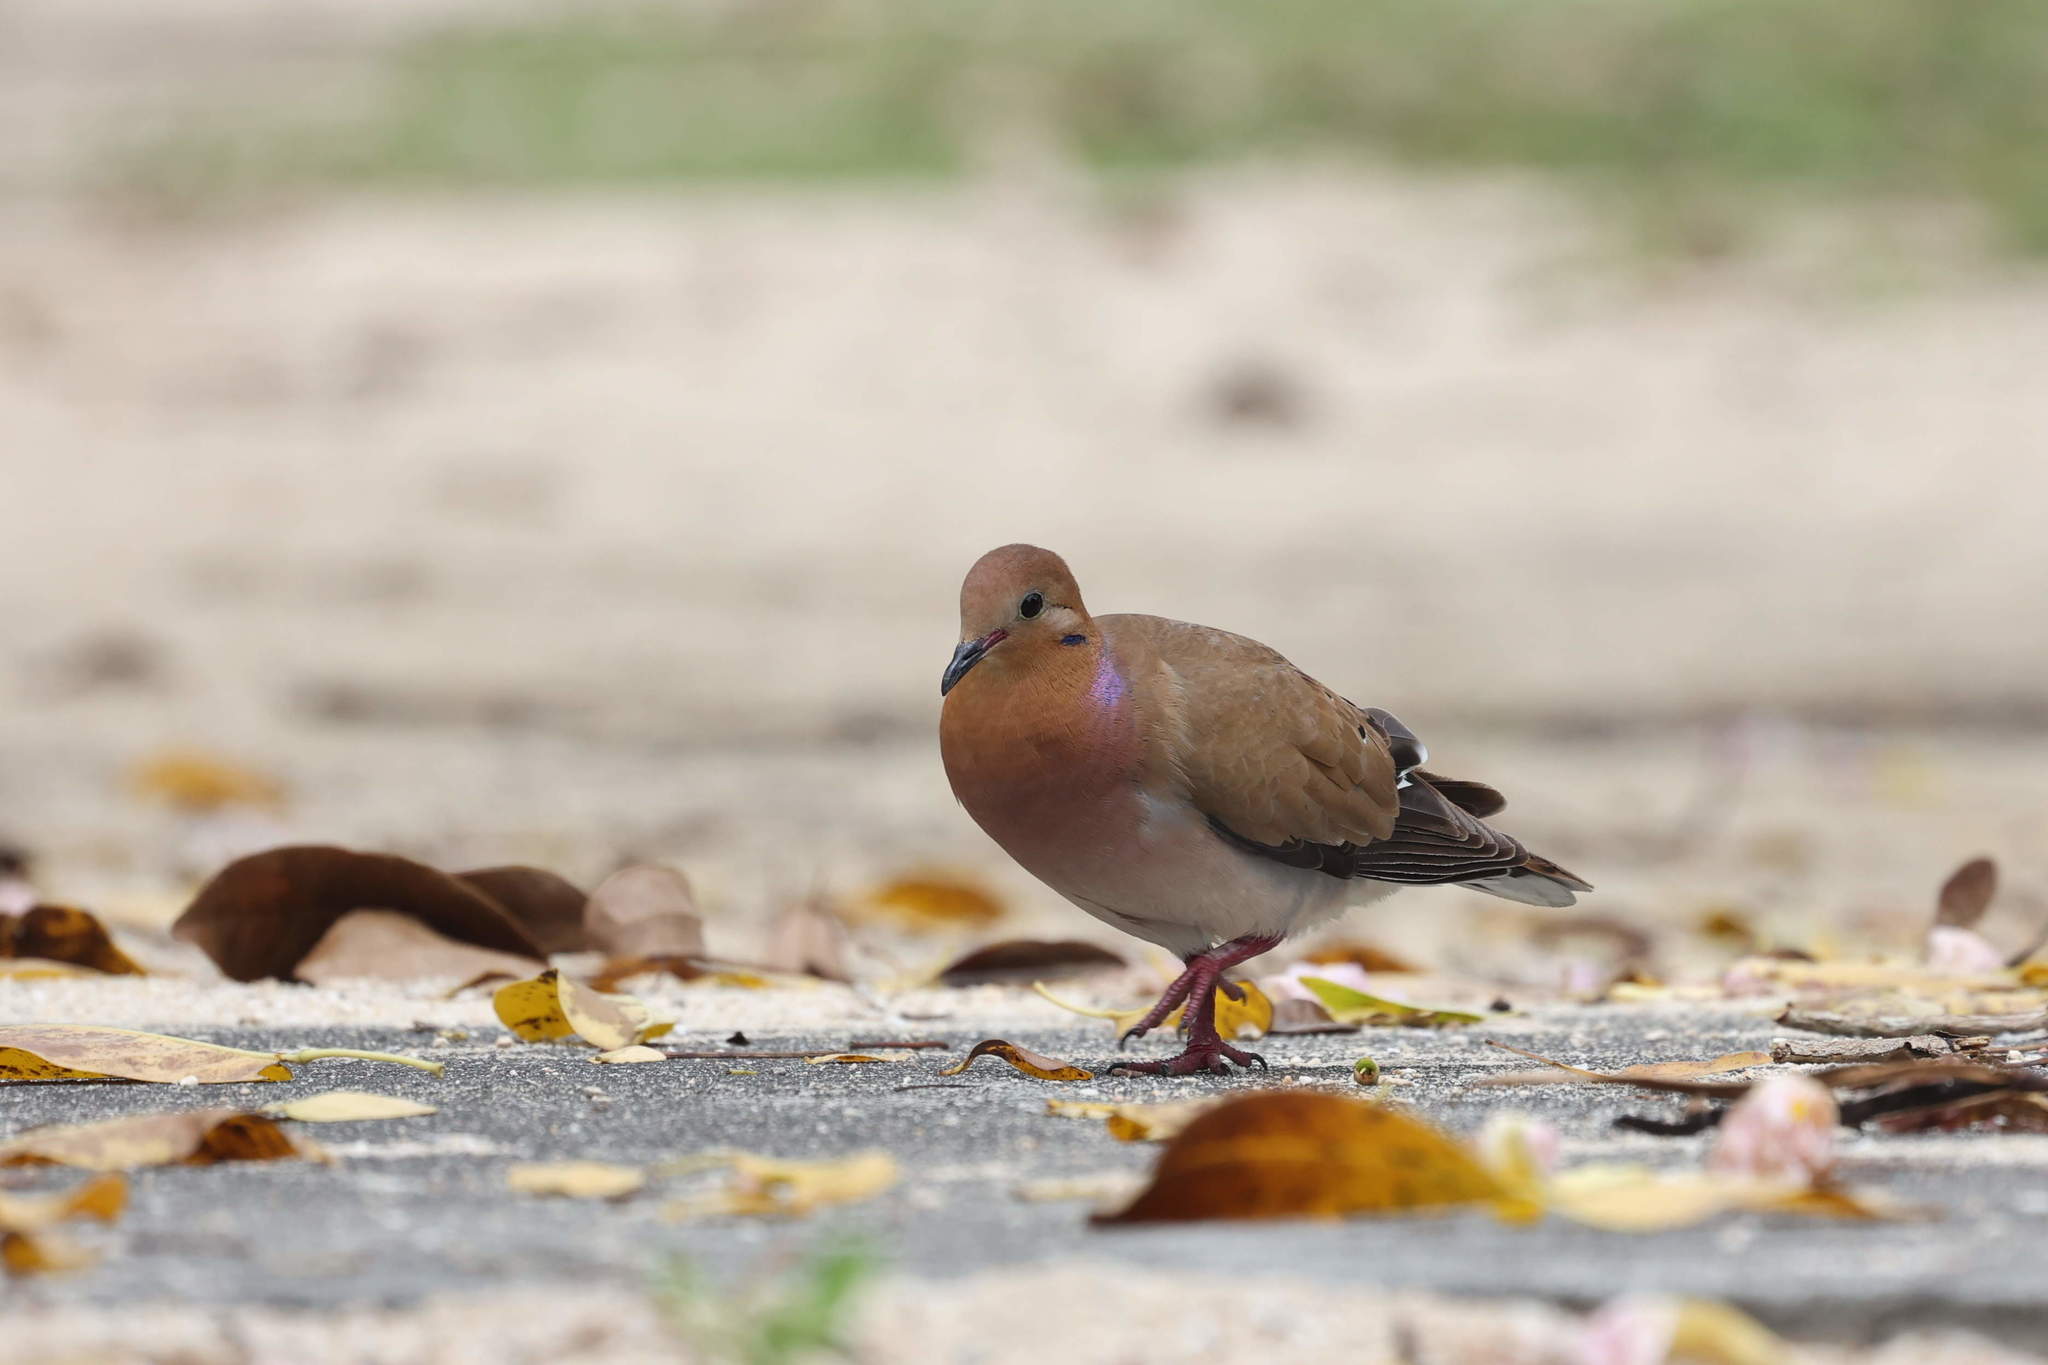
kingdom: Animalia
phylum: Chordata
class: Aves
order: Columbiformes
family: Columbidae
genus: Zenaida
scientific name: Zenaida aurita
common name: Zenaida dove
